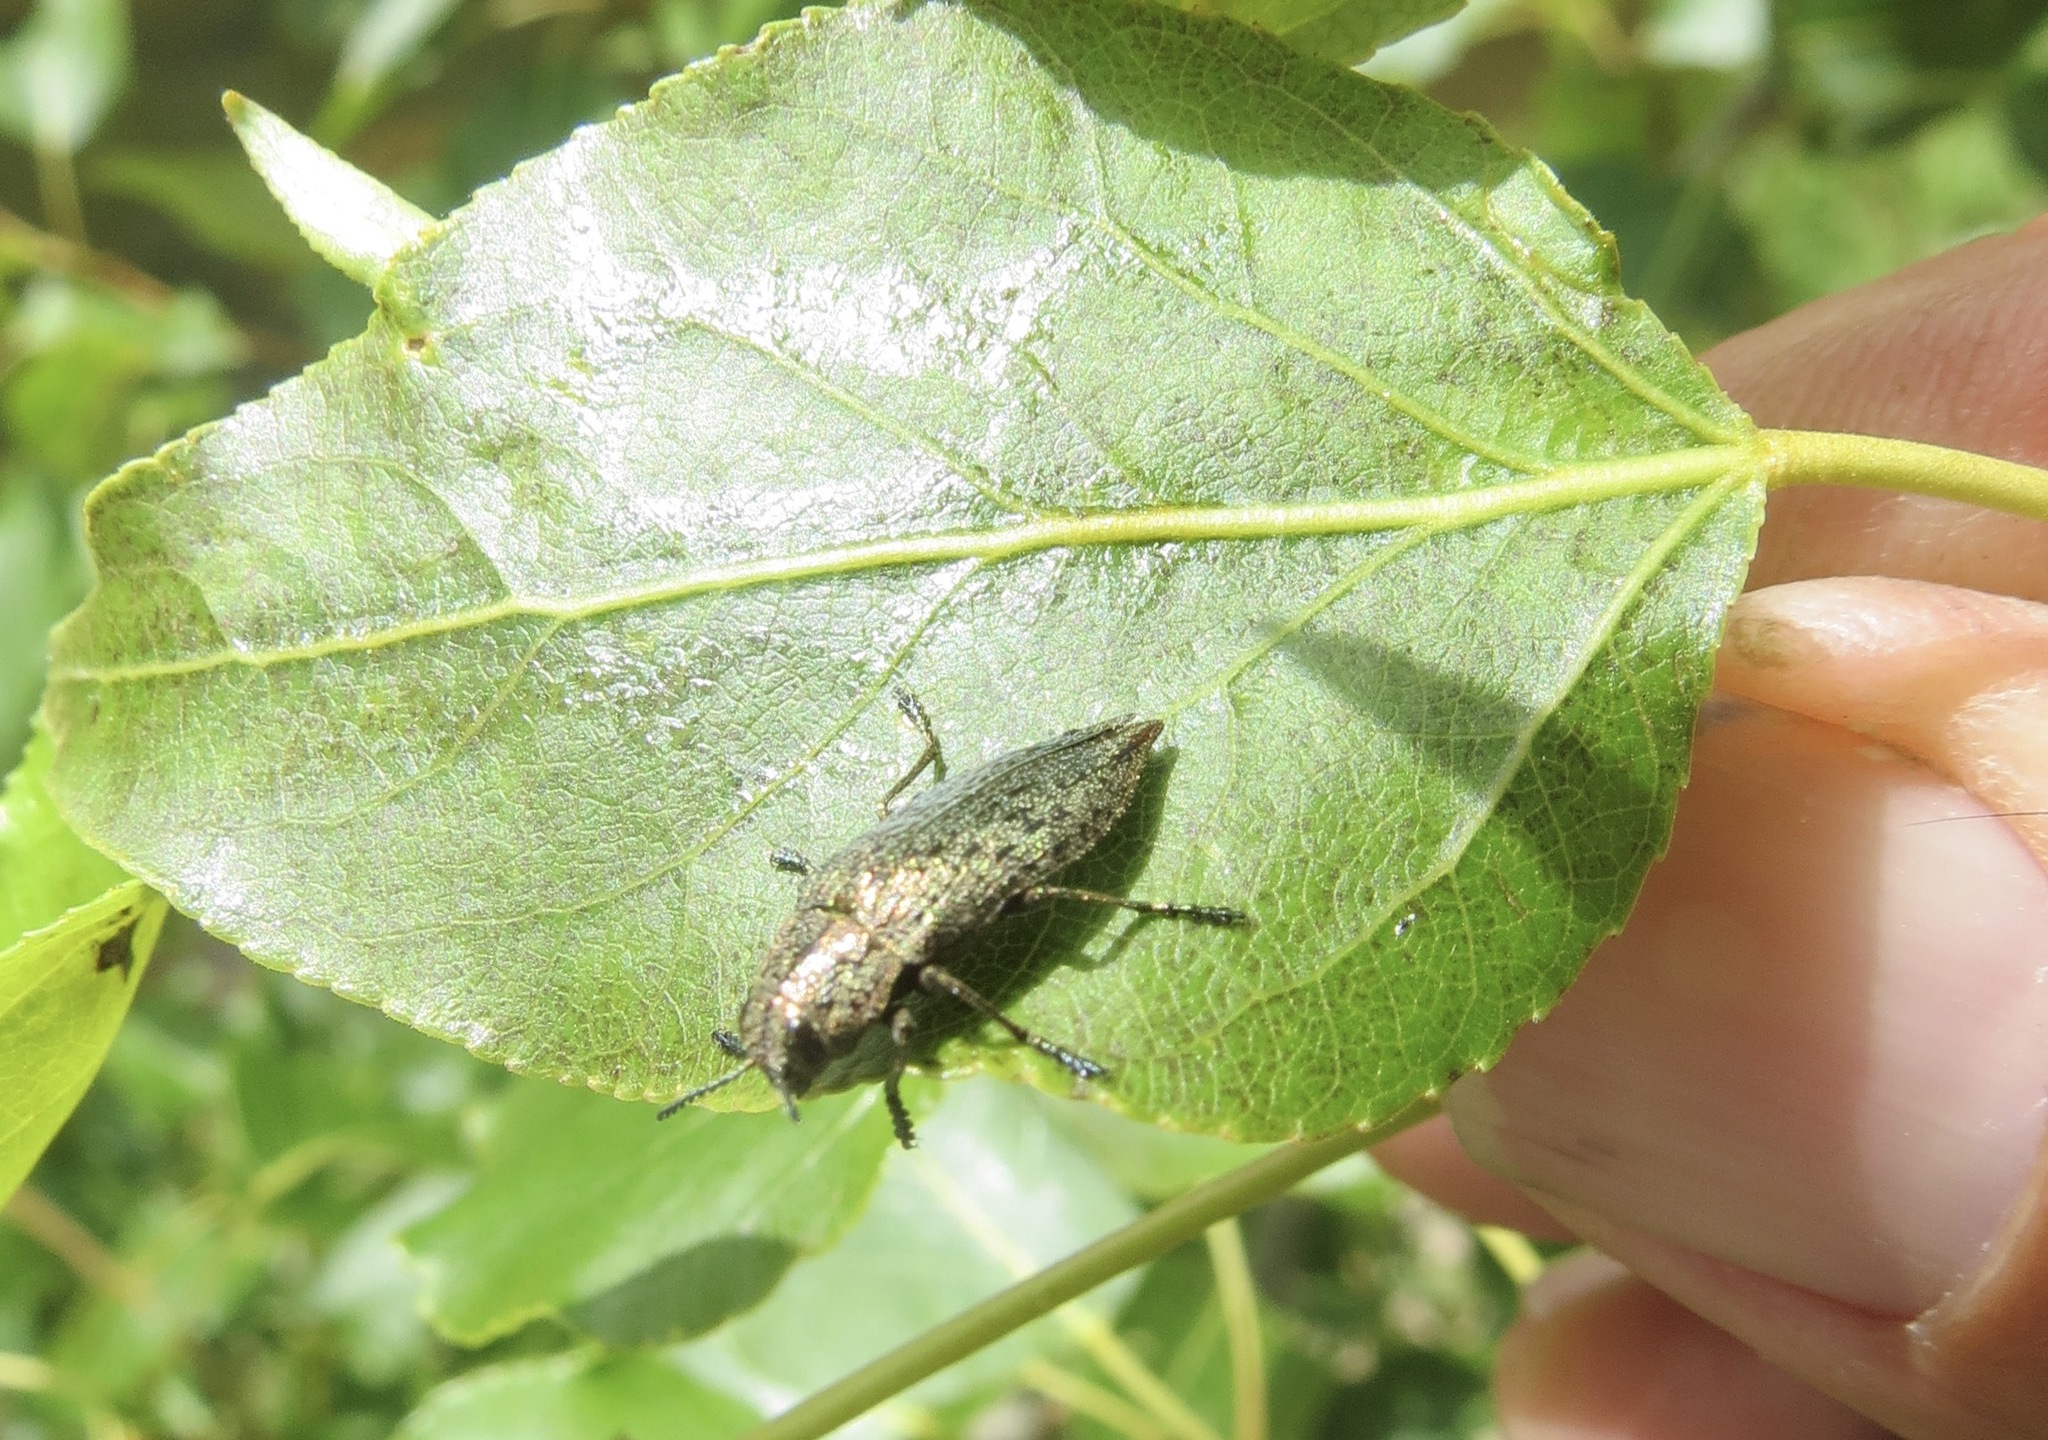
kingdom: Animalia
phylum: Arthropoda
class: Insecta
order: Coleoptera
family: Buprestidae
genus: Poecilonota
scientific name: Poecilonota californica
